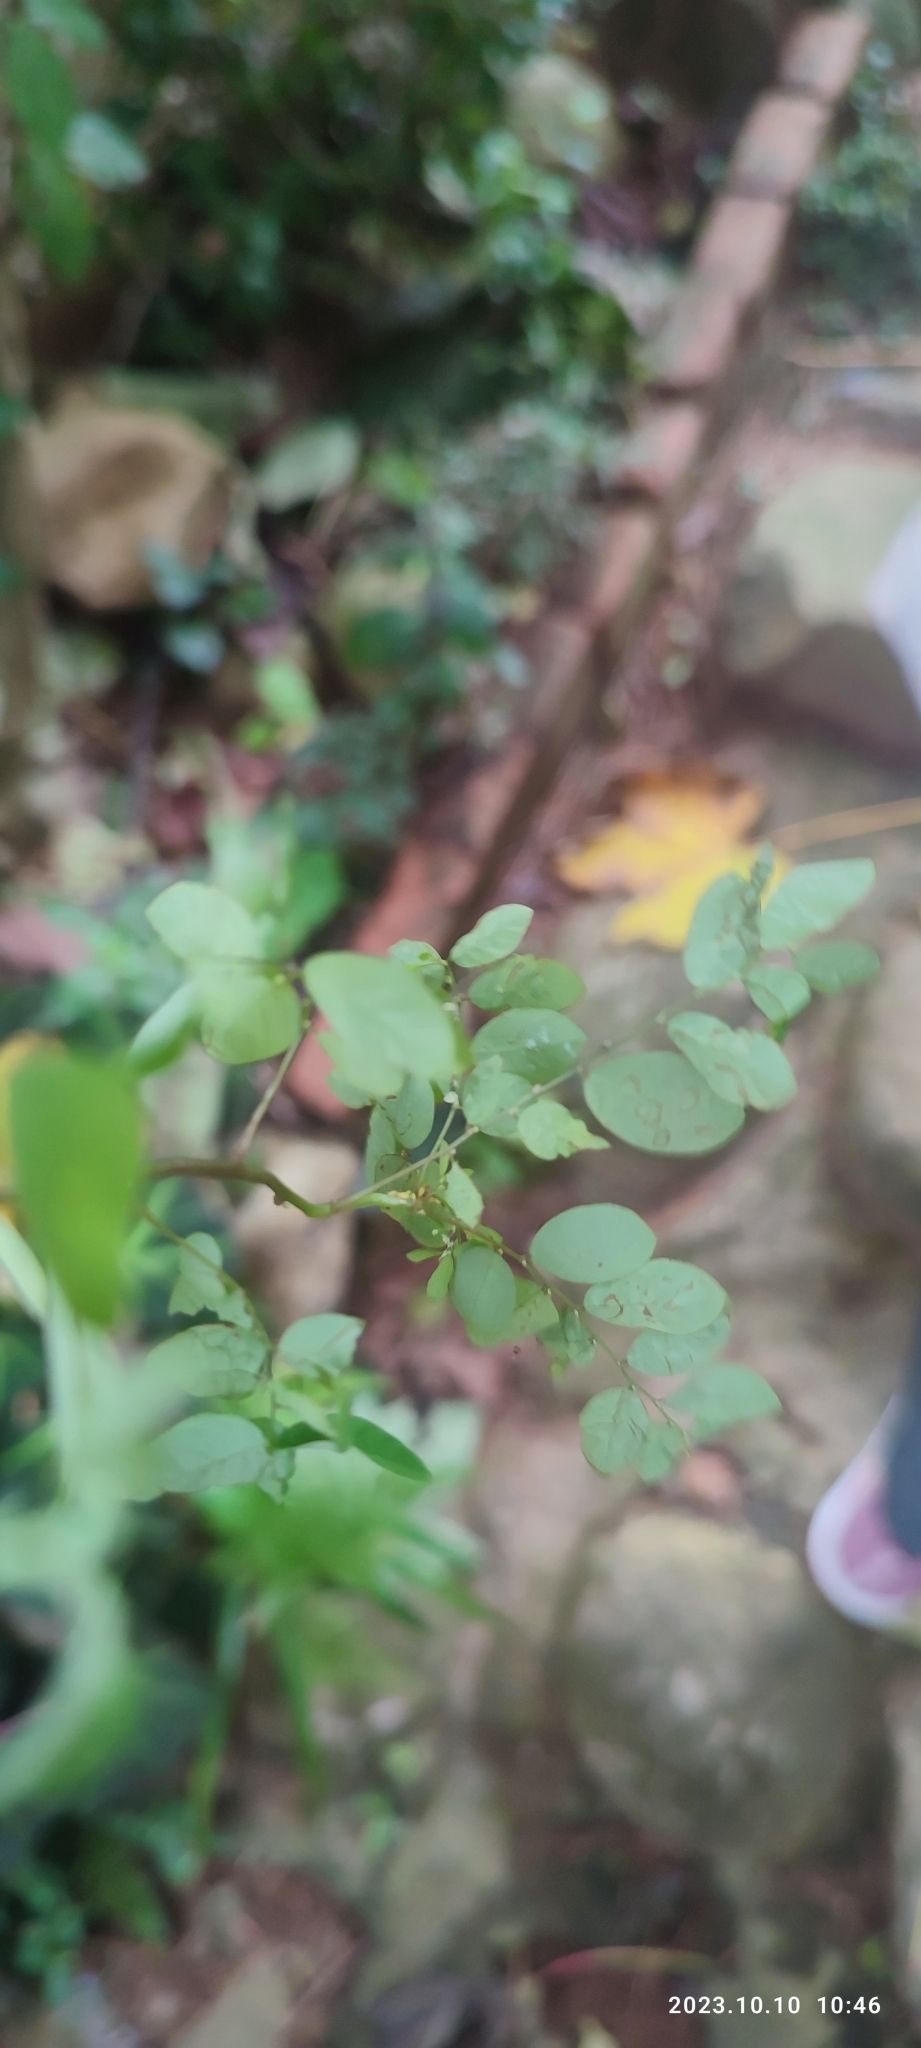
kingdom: Plantae
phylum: Tracheophyta
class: Magnoliopsida
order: Malpighiales
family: Phyllanthaceae
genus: Phyllanthus
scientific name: Phyllanthus tenellus
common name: Mascarene island leaf-flower
